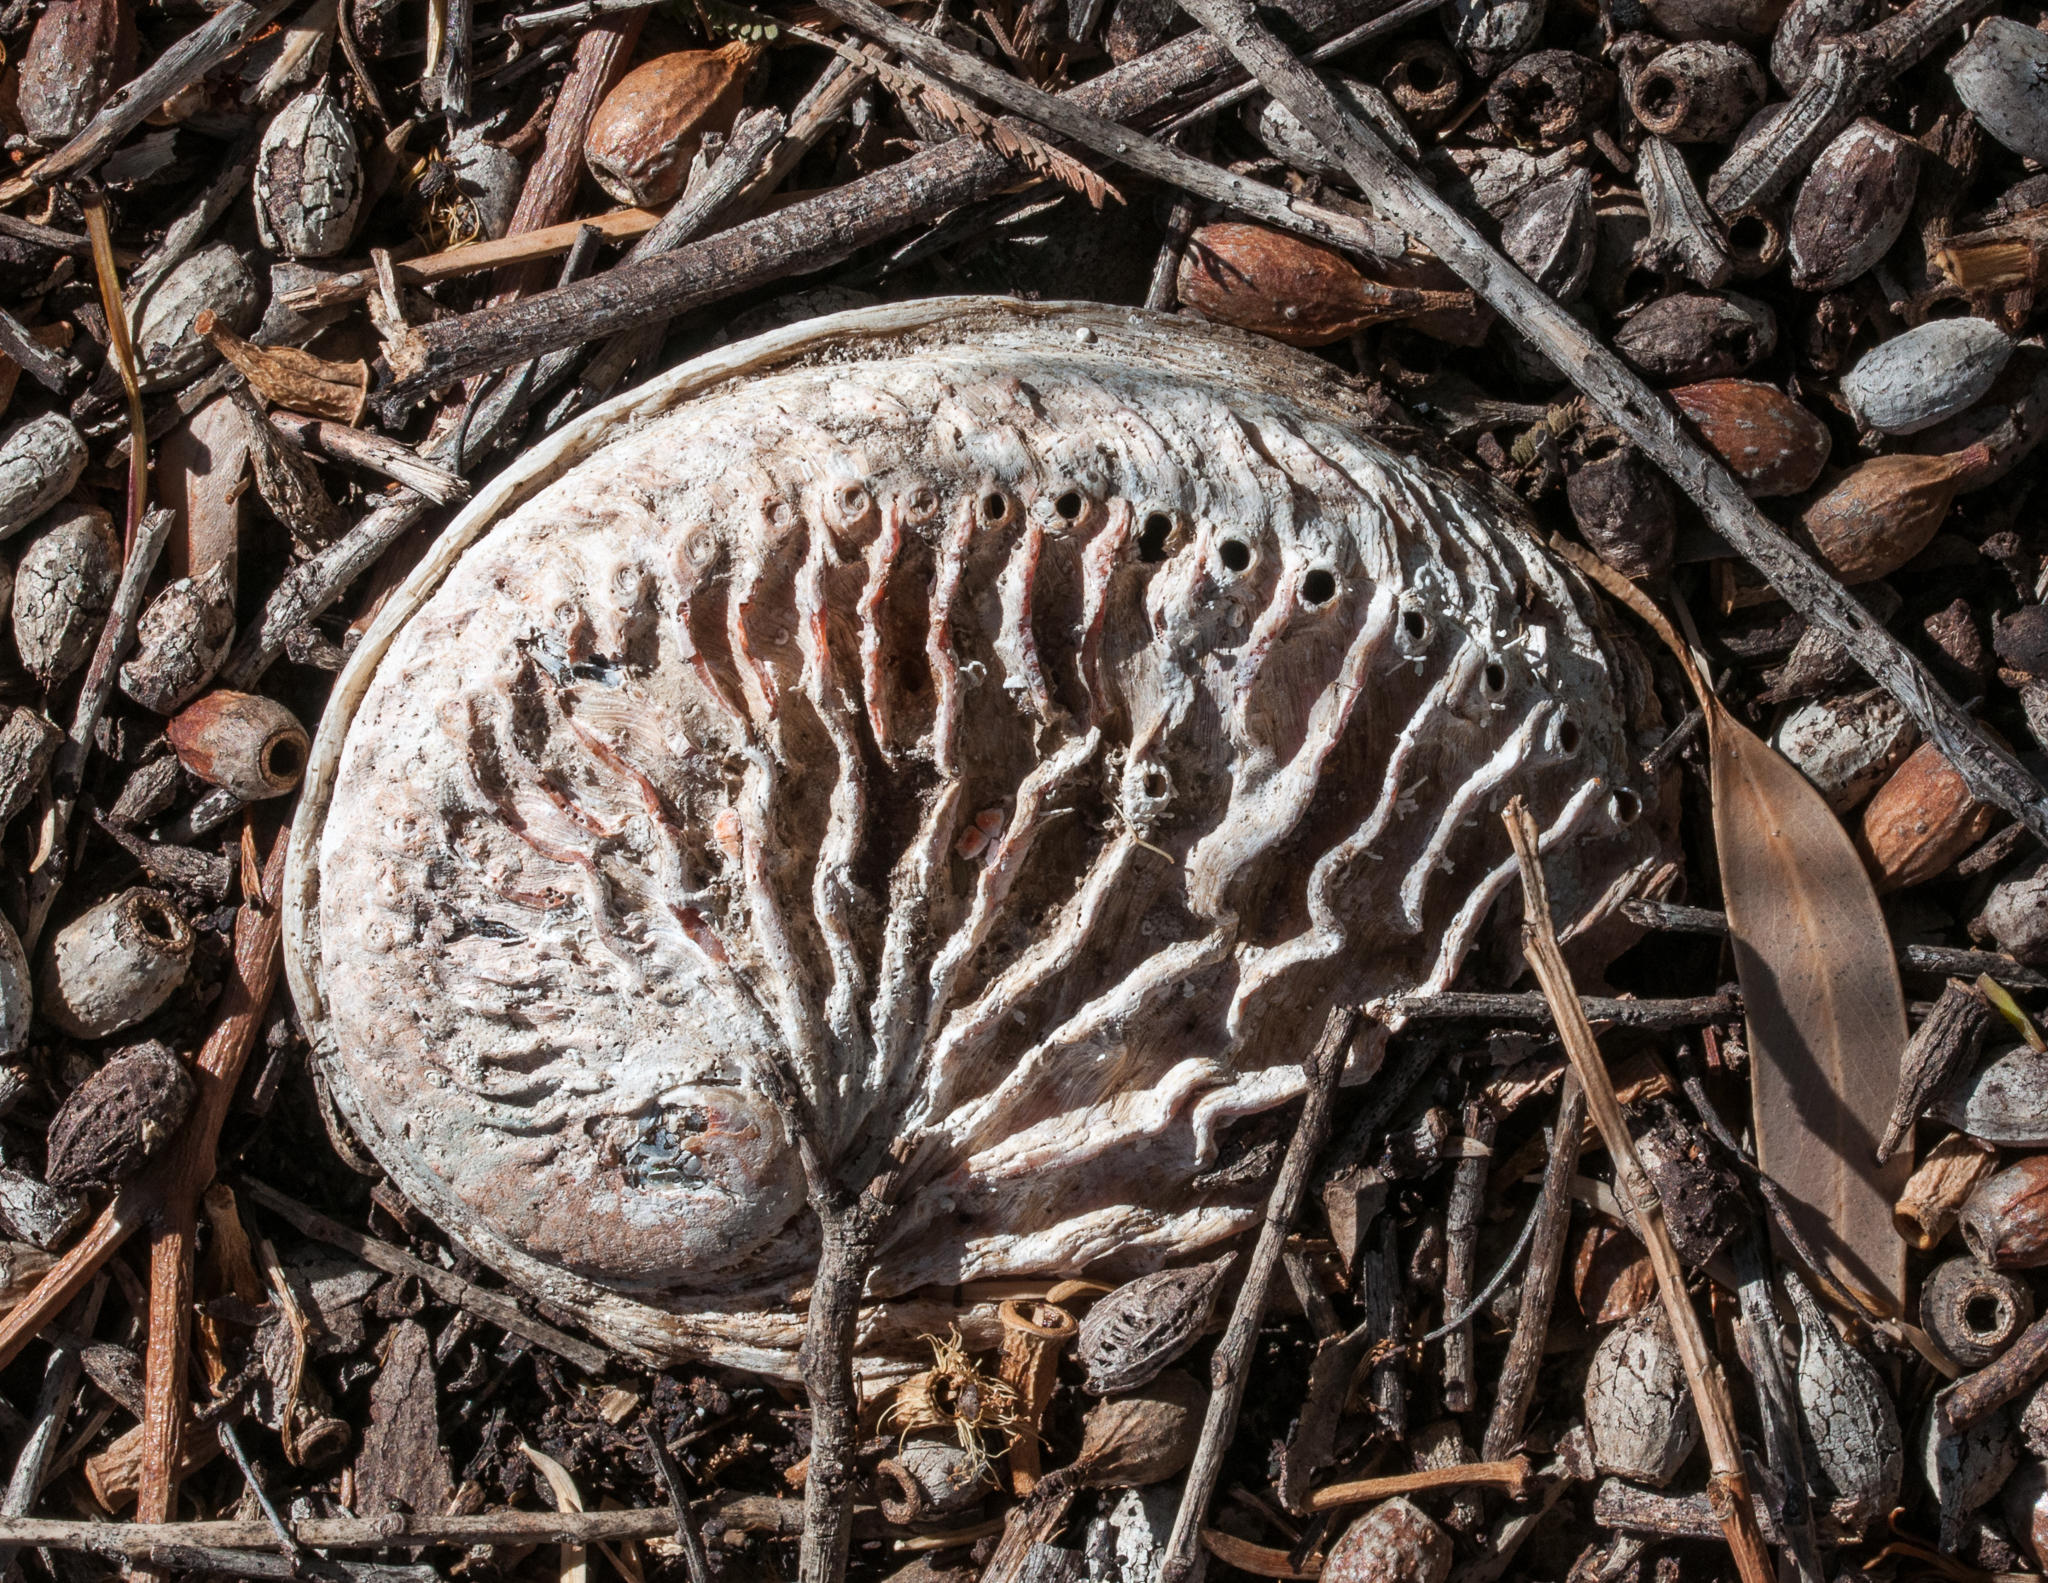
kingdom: Animalia
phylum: Mollusca
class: Gastropoda
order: Lepetellida
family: Haliotidae
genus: Haliotis
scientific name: Haliotis midae
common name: Perlemoen
